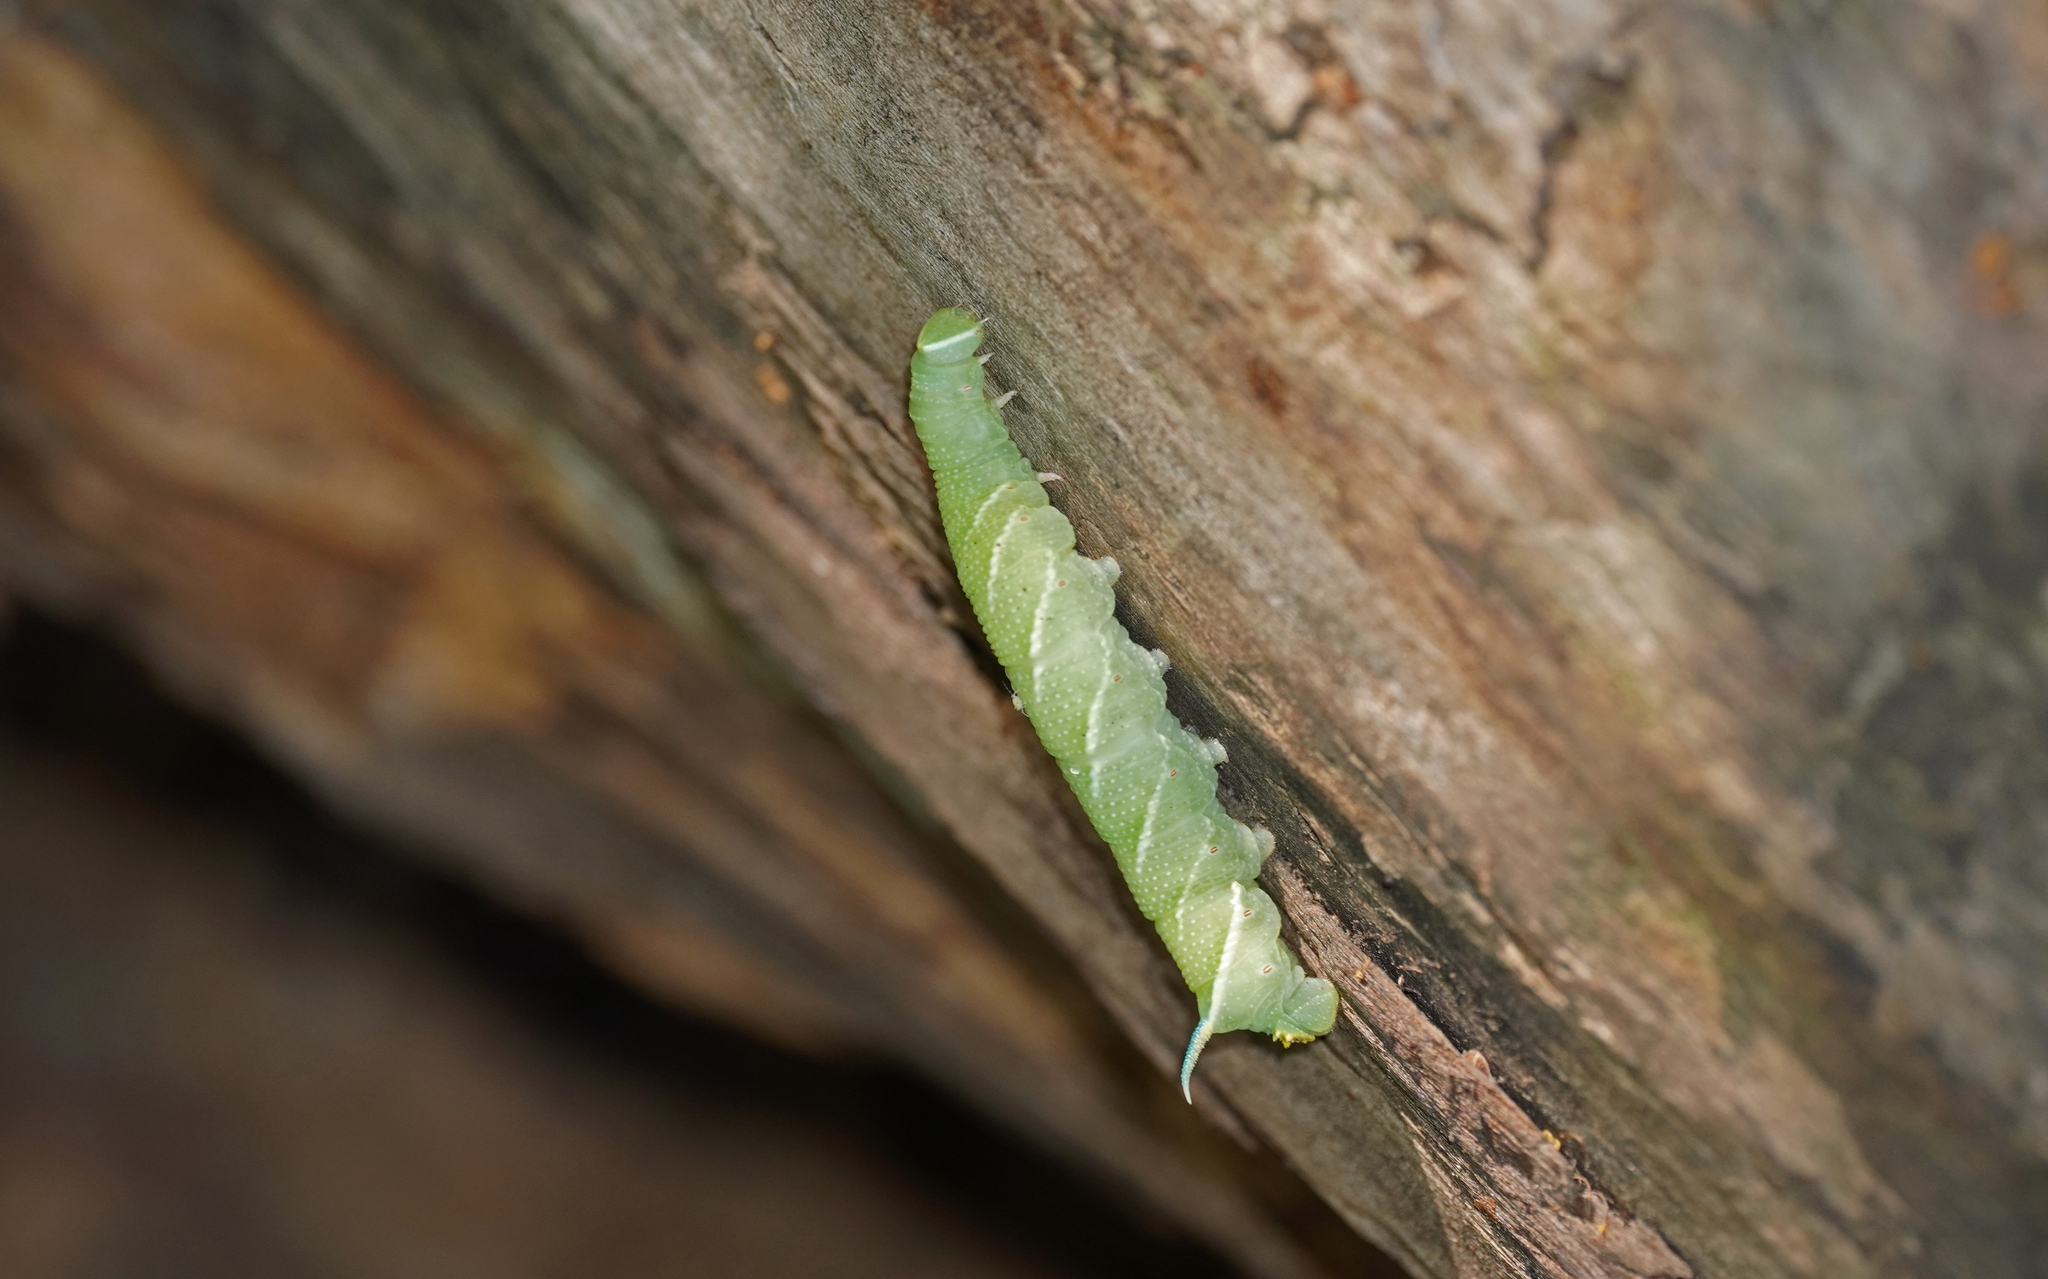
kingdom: Animalia
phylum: Arthropoda
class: Insecta
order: Lepidoptera
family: Sphingidae
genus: Mimas
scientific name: Mimas tiliae
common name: Lime hawk-moth
